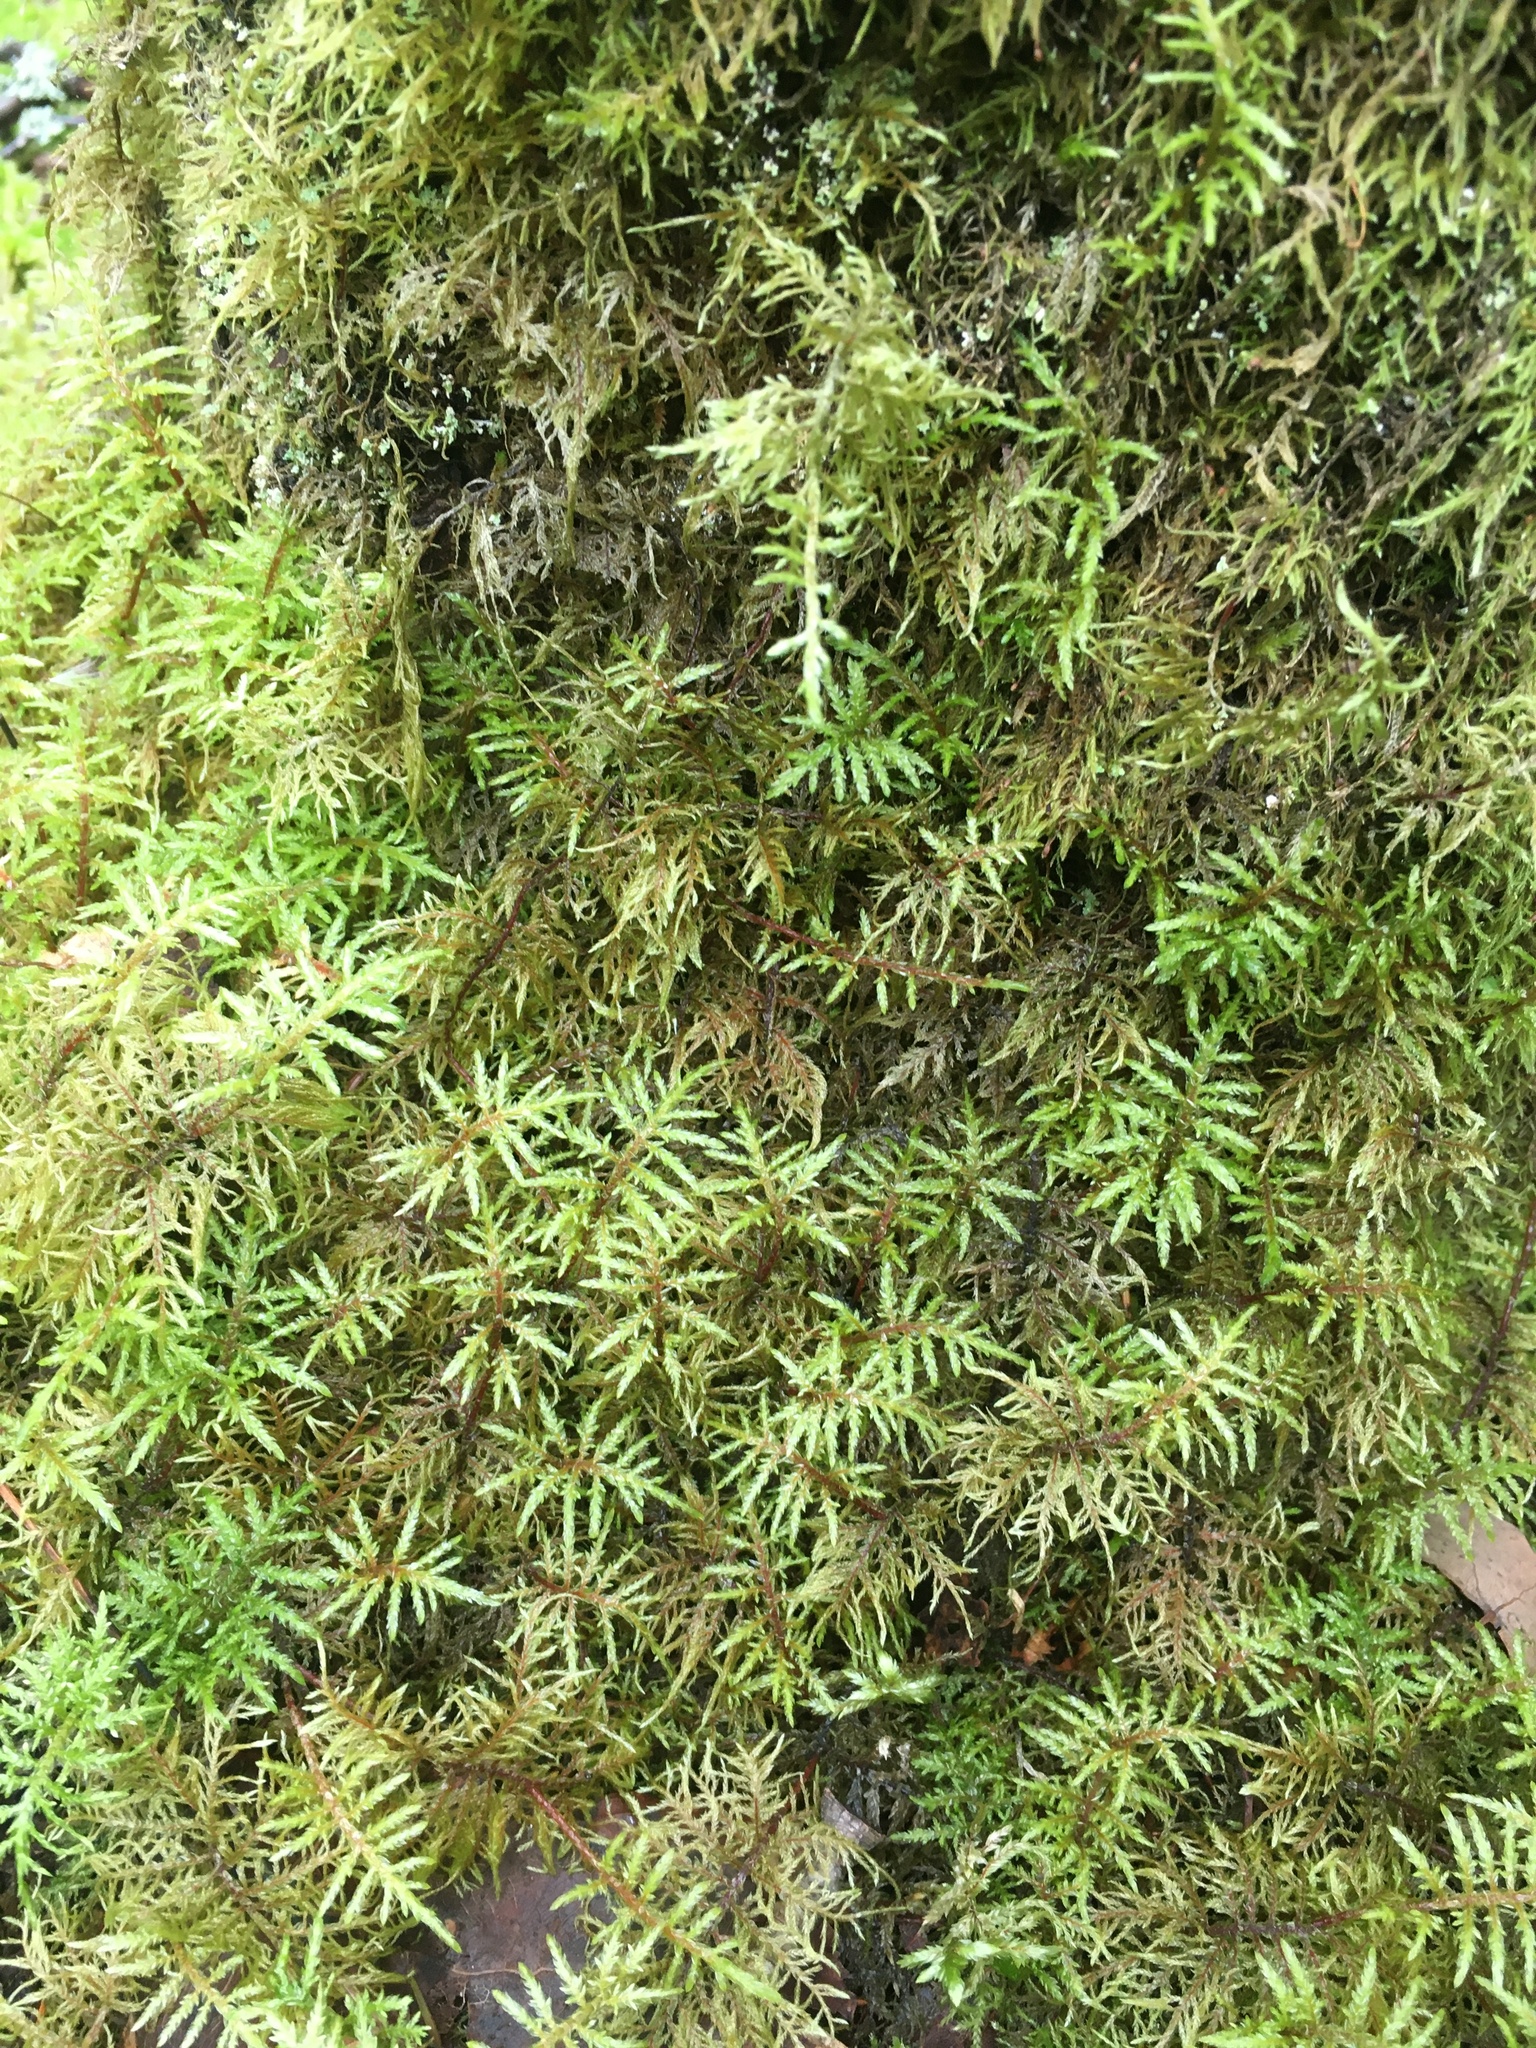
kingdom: Plantae
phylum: Bryophyta
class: Bryopsida
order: Hypnales
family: Hylocomiaceae
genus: Hylocomium
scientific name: Hylocomium splendens
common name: Stairstep moss
